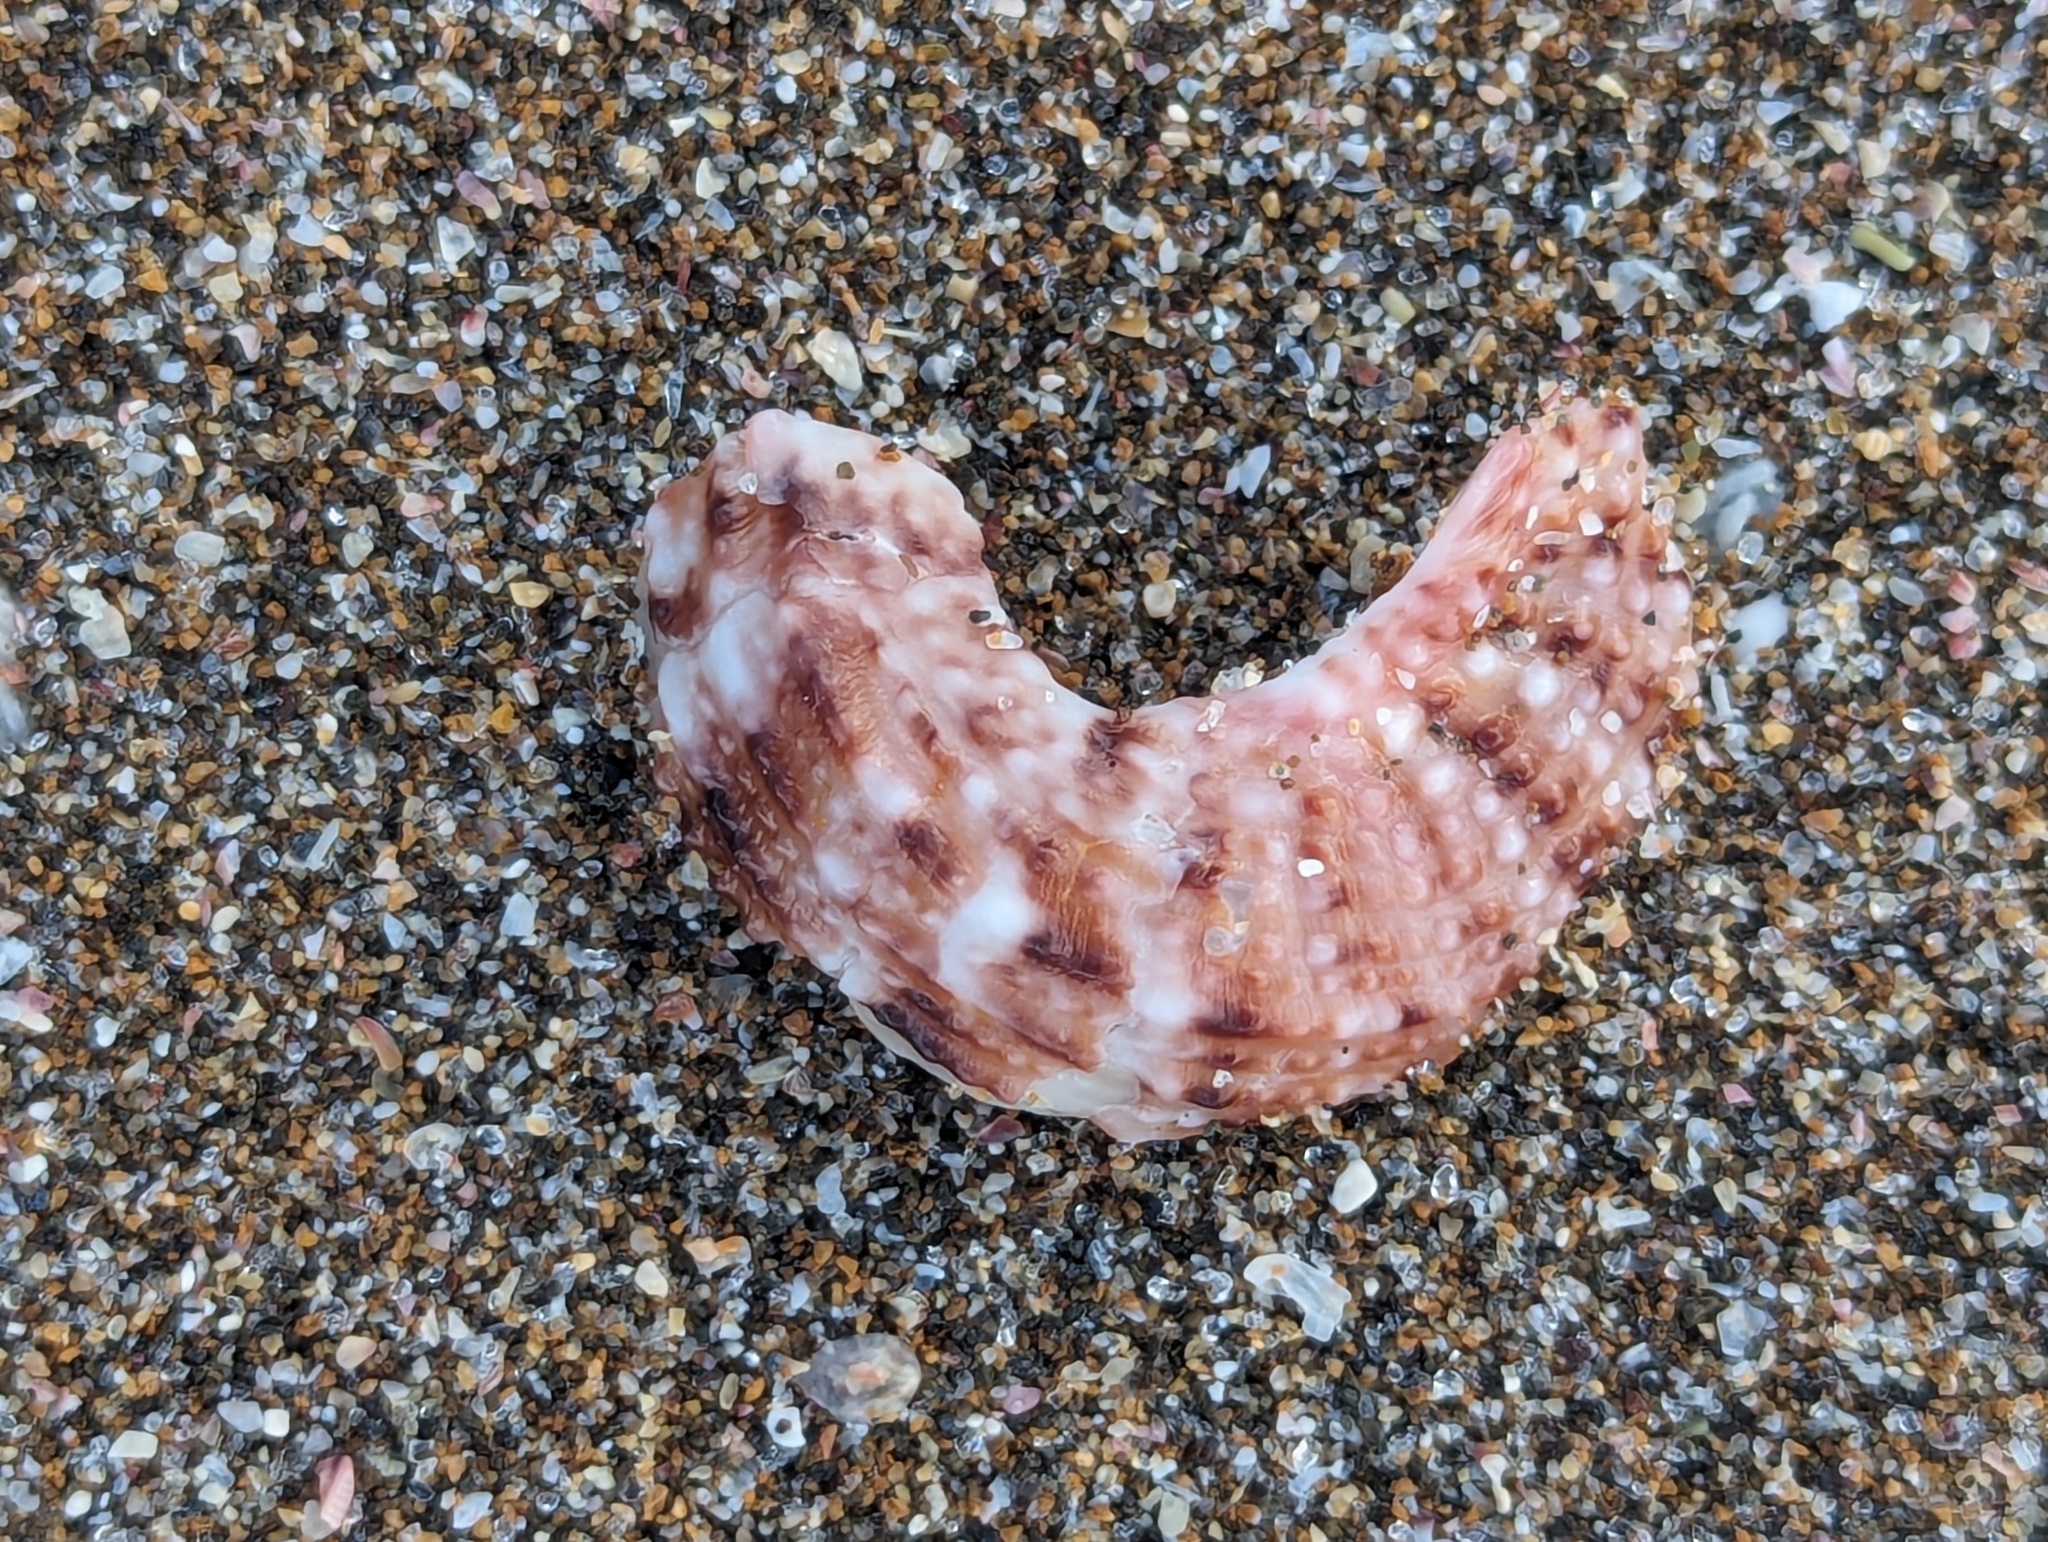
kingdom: Animalia
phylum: Mollusca
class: Gastropoda
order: Trochida
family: Turbinidae
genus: Modelia
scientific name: Modelia granosa
